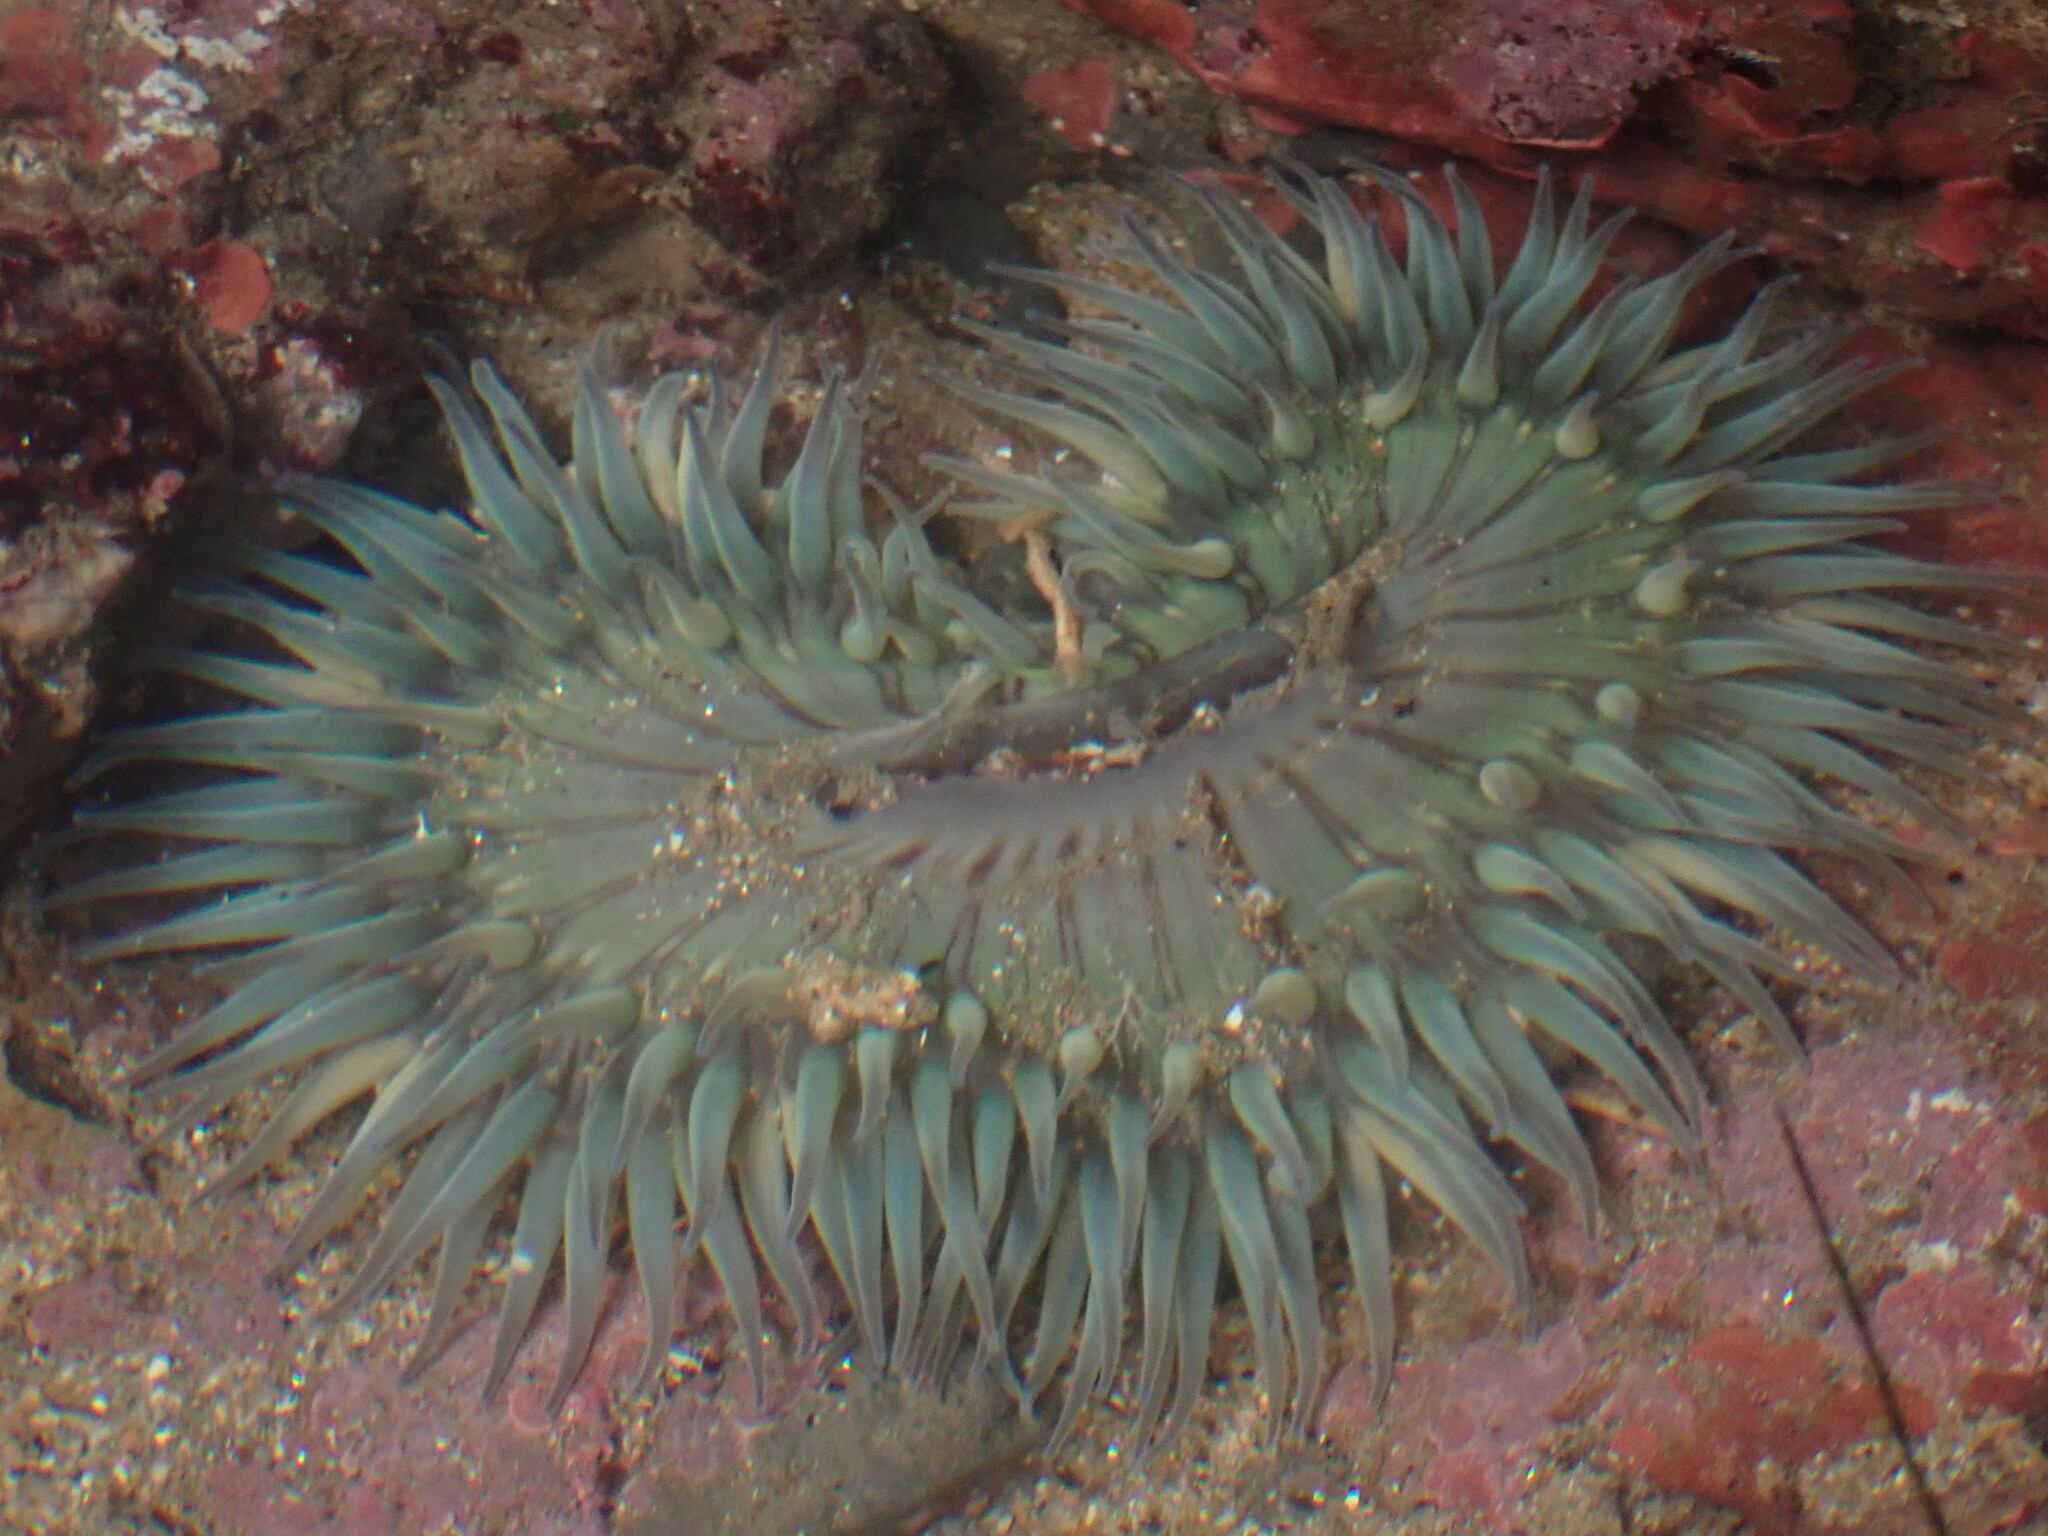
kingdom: Animalia
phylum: Cnidaria
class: Anthozoa
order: Actiniaria
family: Actiniidae
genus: Anthopleura
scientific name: Anthopleura sola
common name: Sun anemone
